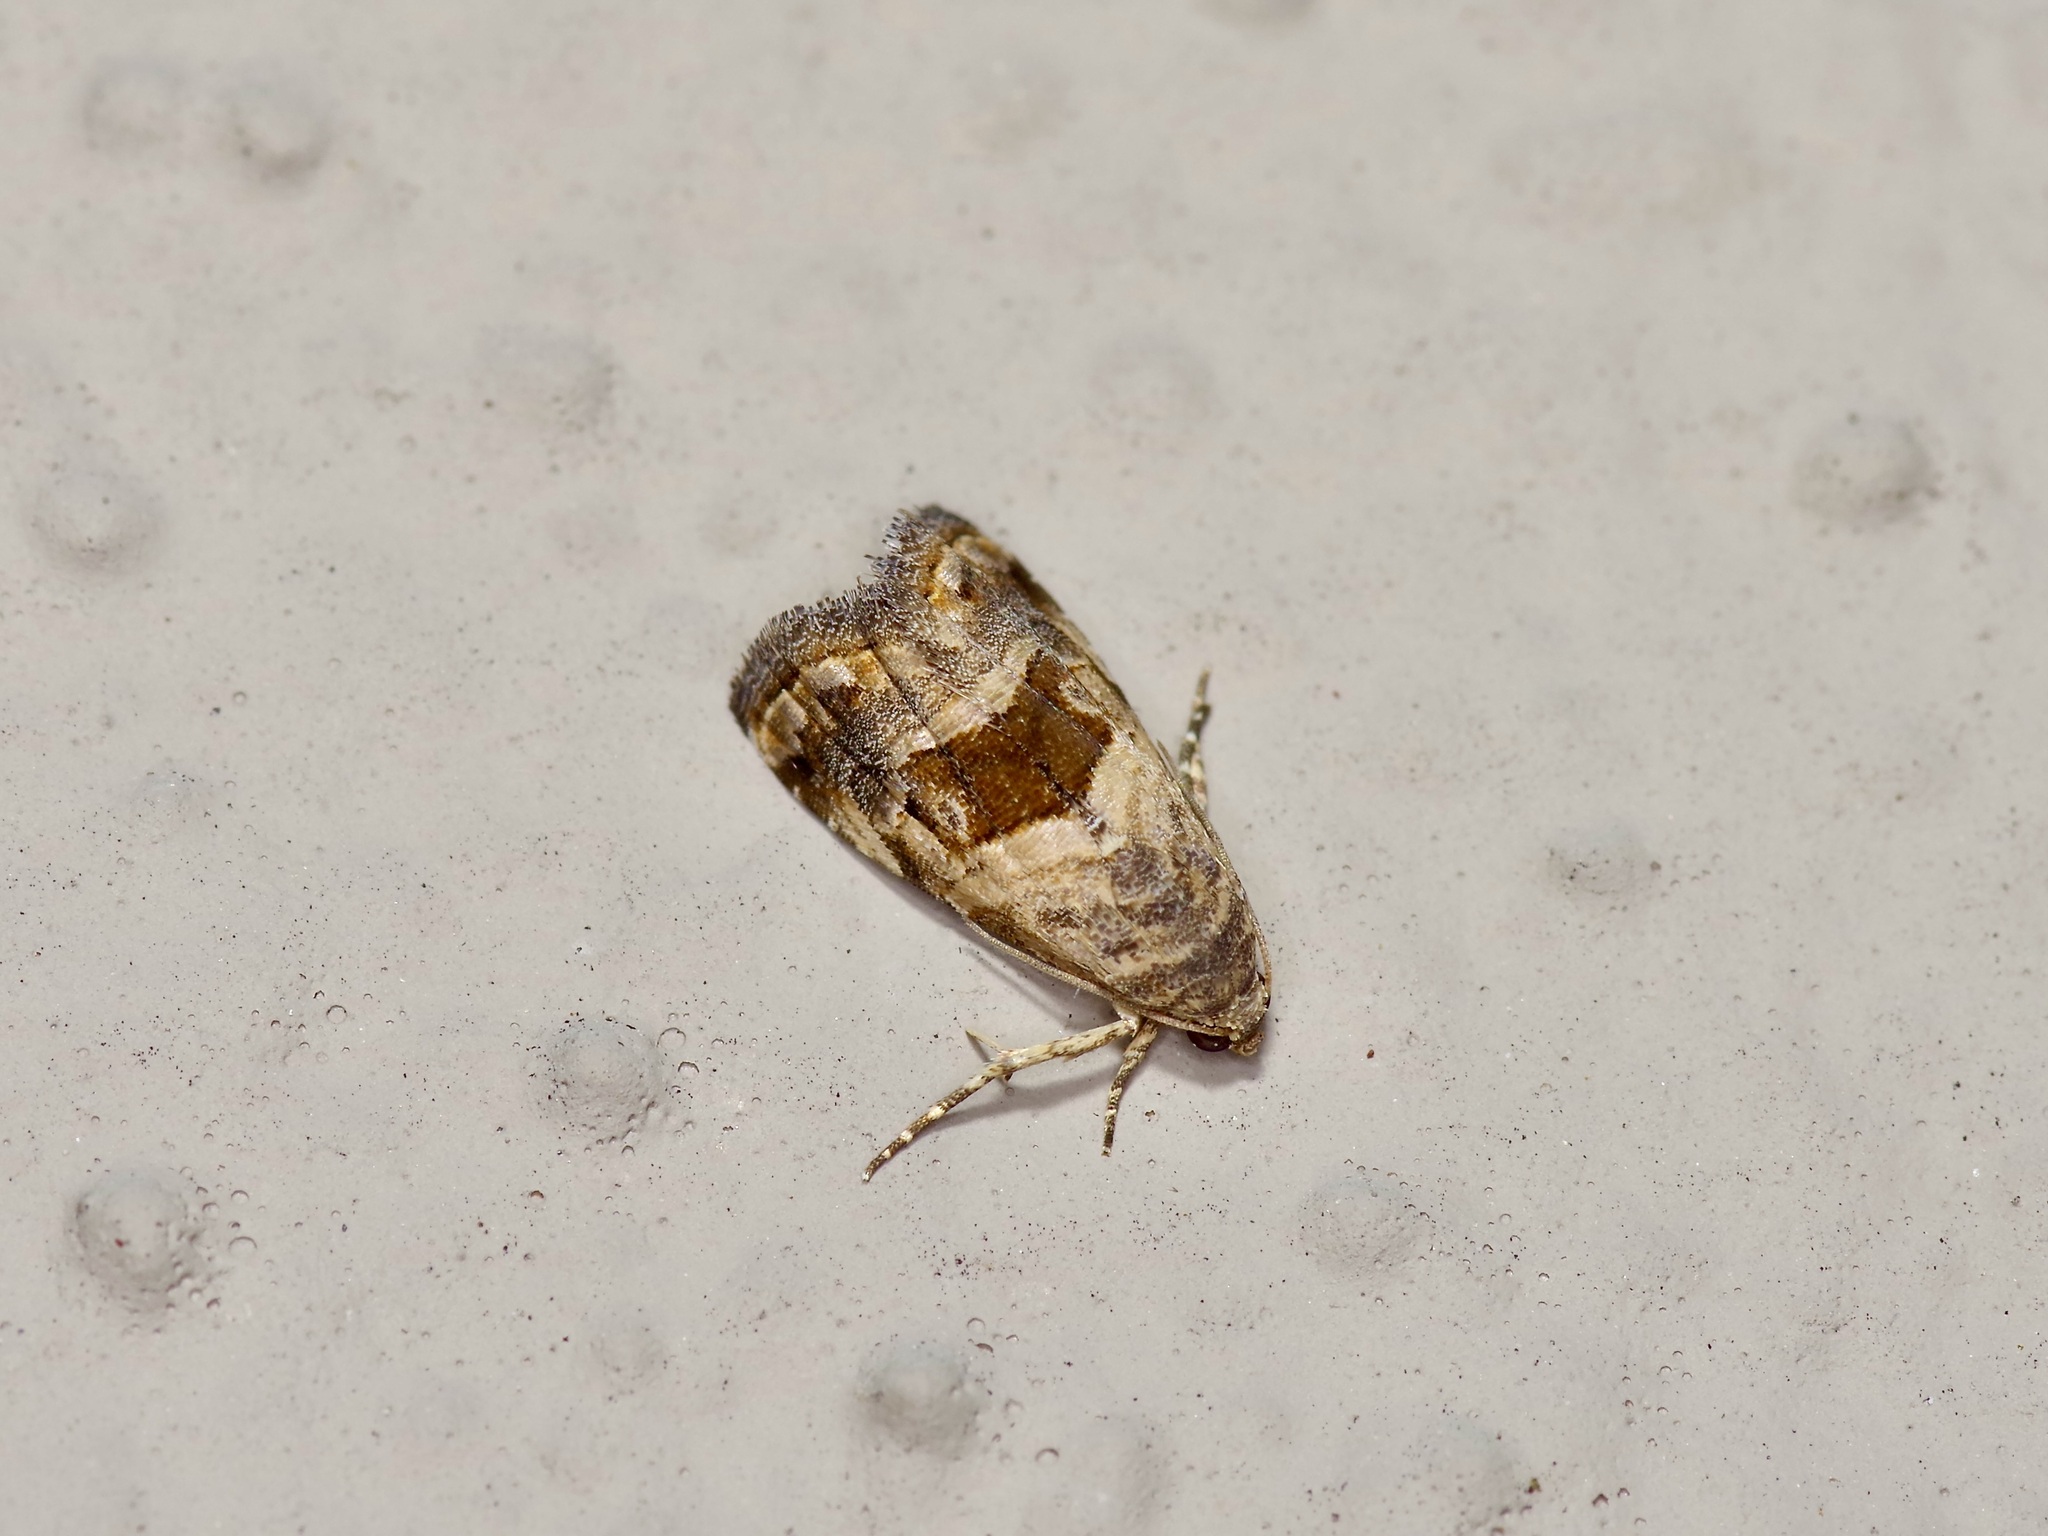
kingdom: Animalia
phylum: Arthropoda
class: Insecta
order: Lepidoptera
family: Noctuidae
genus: Tripudia
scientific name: Tripudia quadrifera
